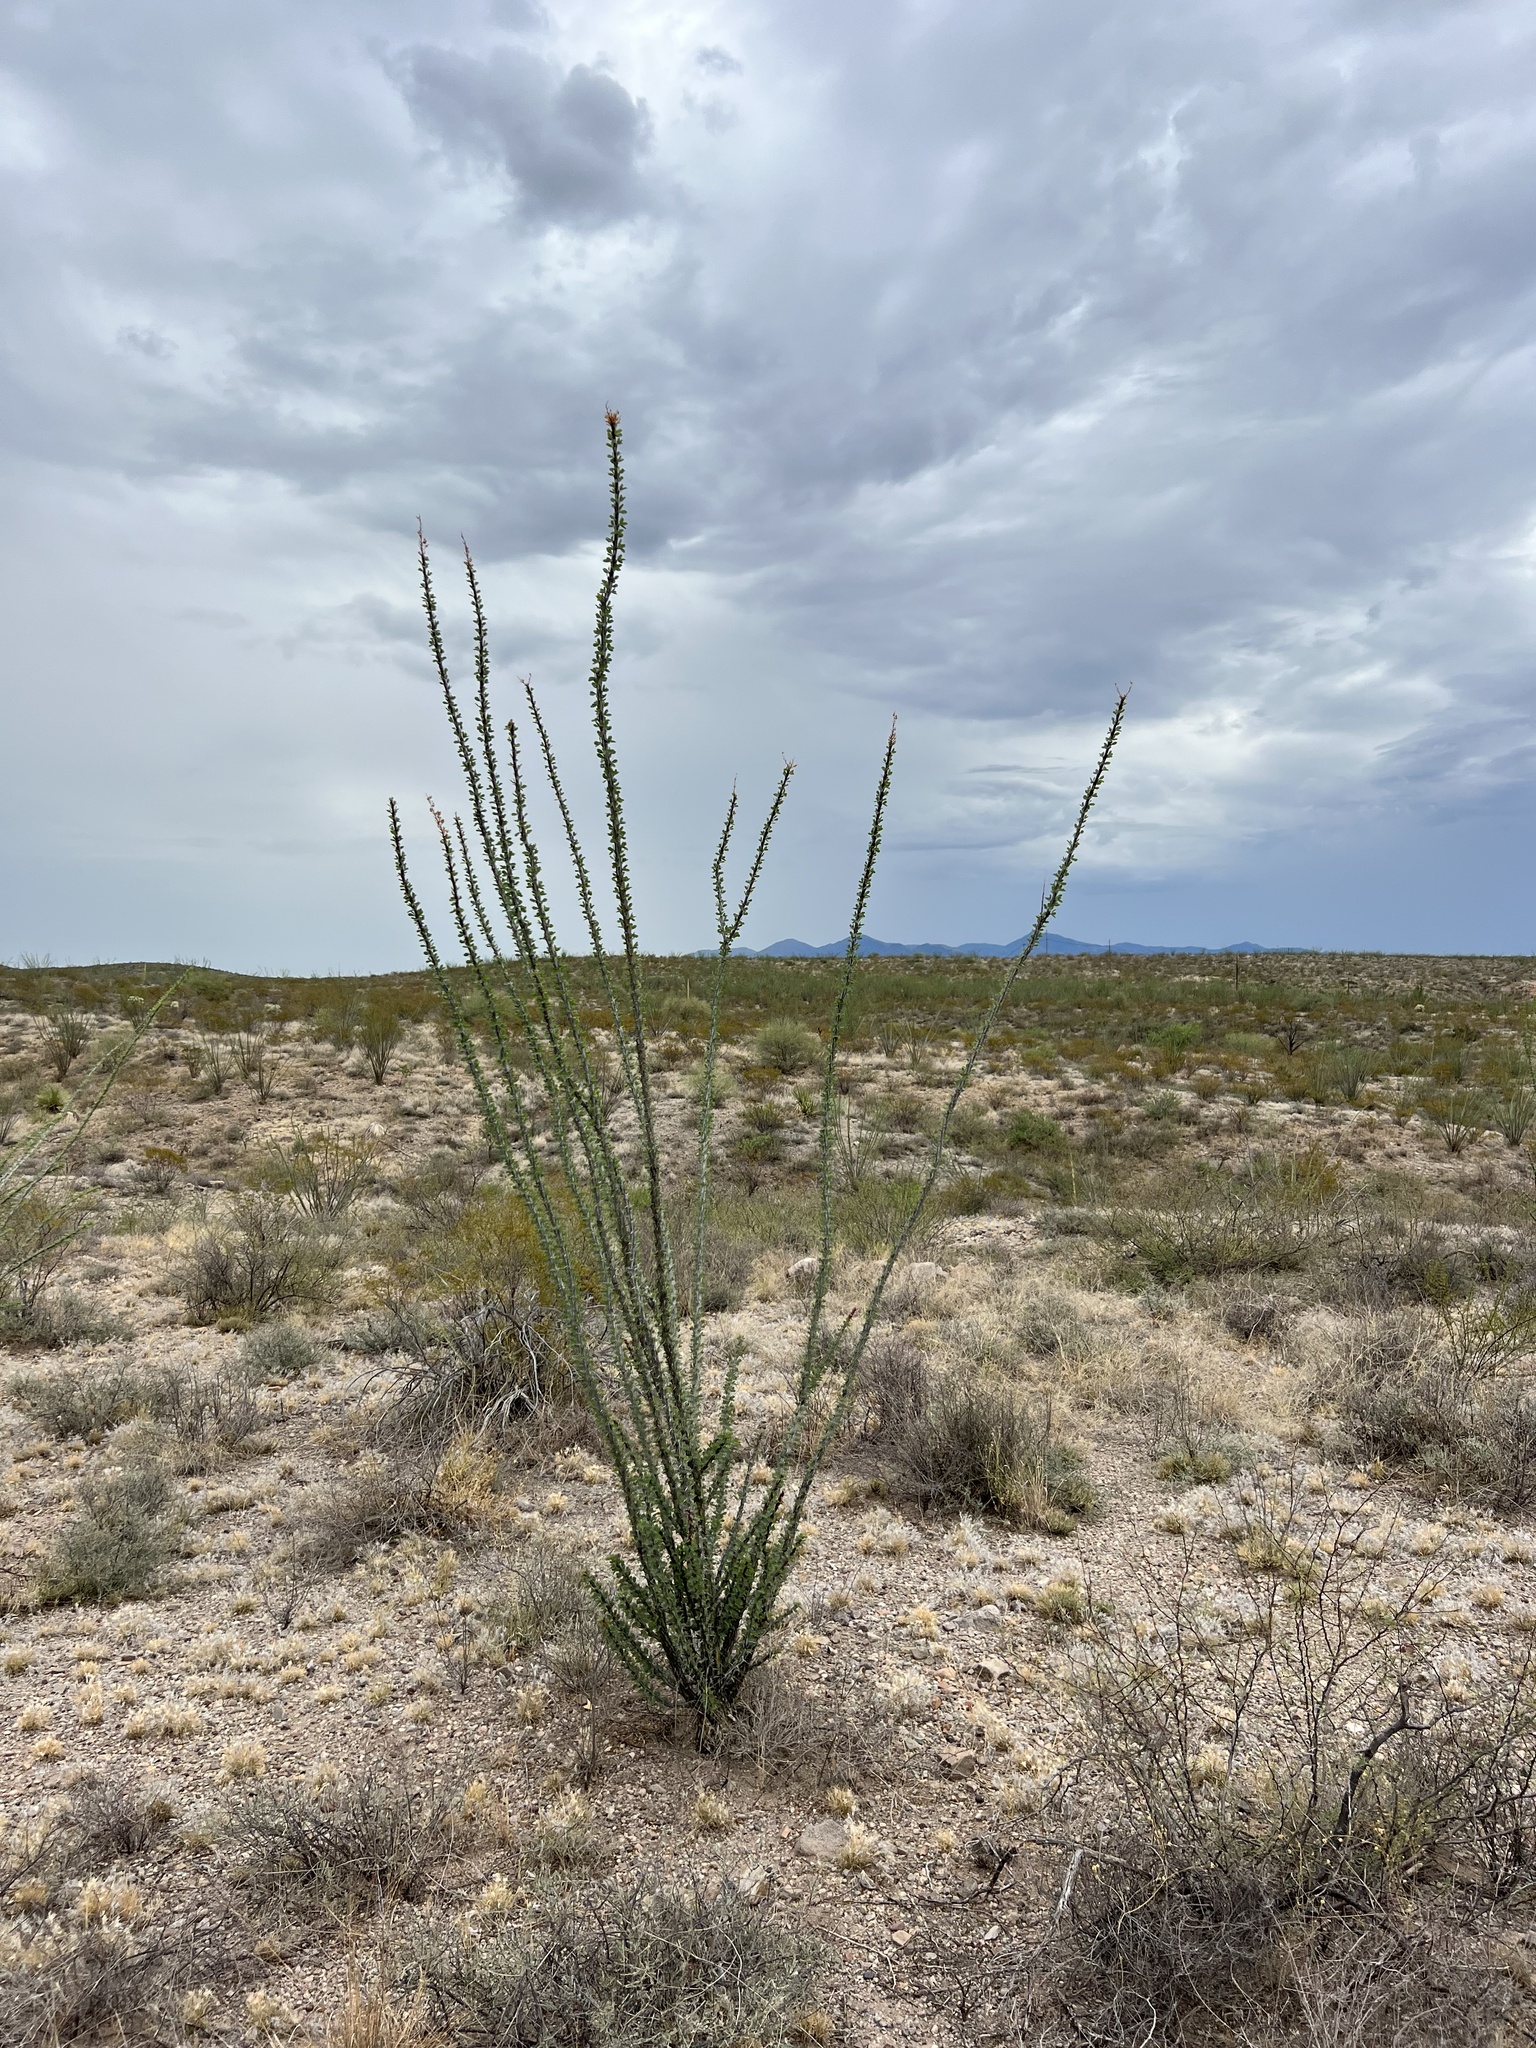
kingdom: Plantae
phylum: Tracheophyta
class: Magnoliopsida
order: Ericales
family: Fouquieriaceae
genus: Fouquieria
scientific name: Fouquieria splendens
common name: Vine-cactus
